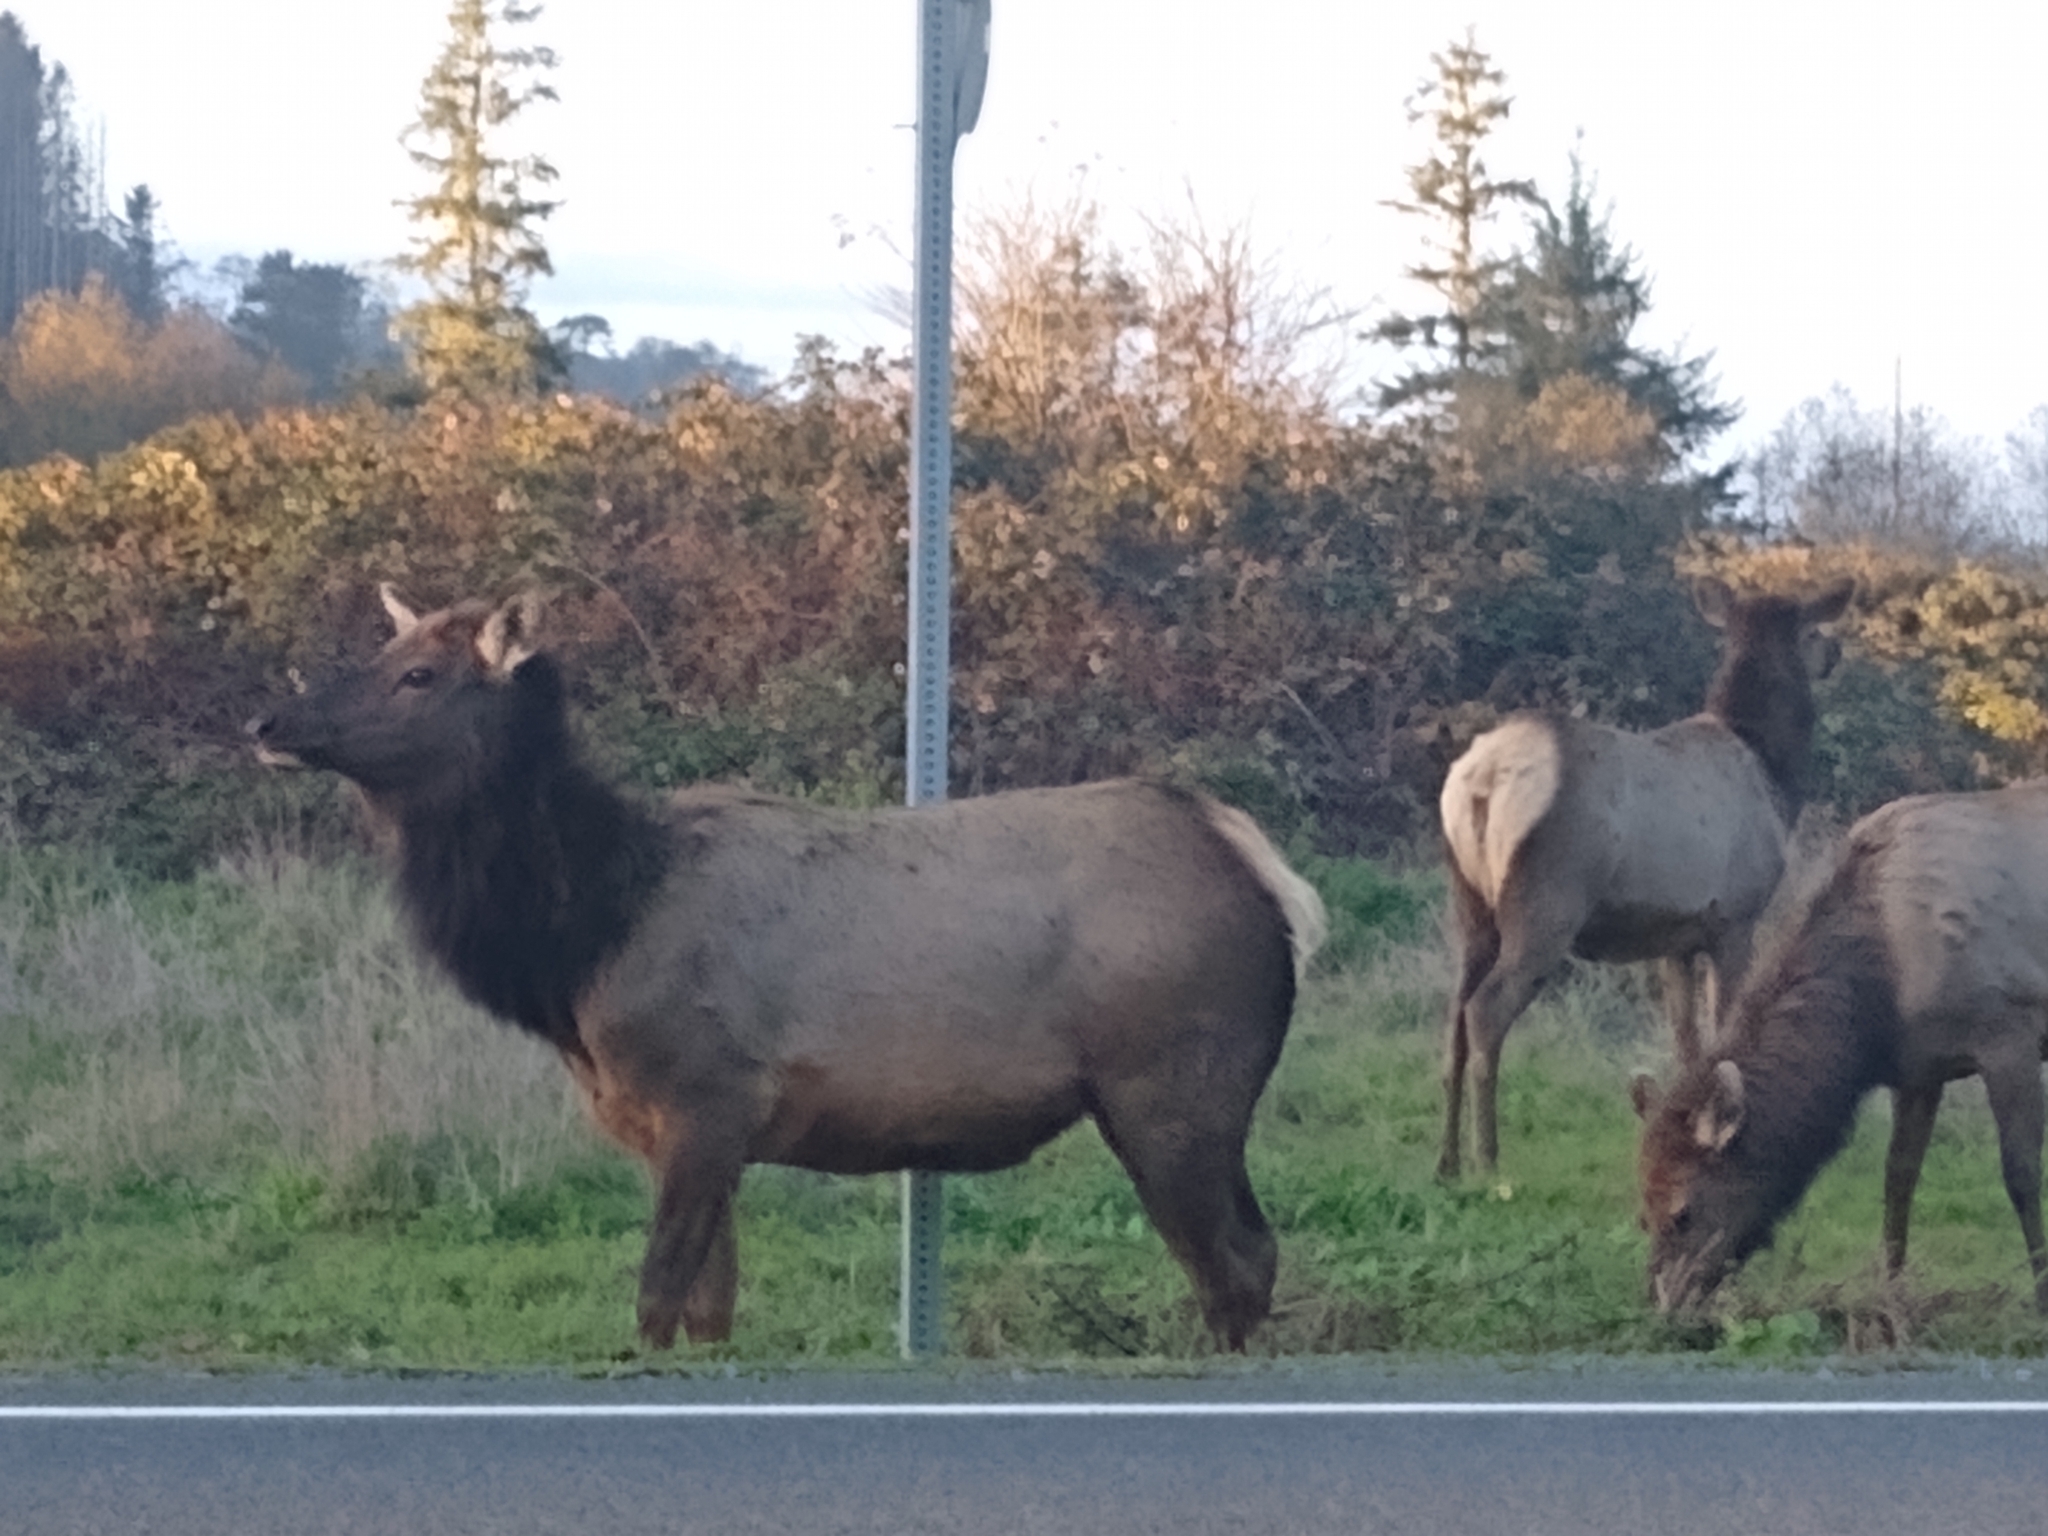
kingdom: Animalia
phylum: Chordata
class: Mammalia
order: Artiodactyla
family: Cervidae
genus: Cervus
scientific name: Cervus elaphus
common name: Red deer
